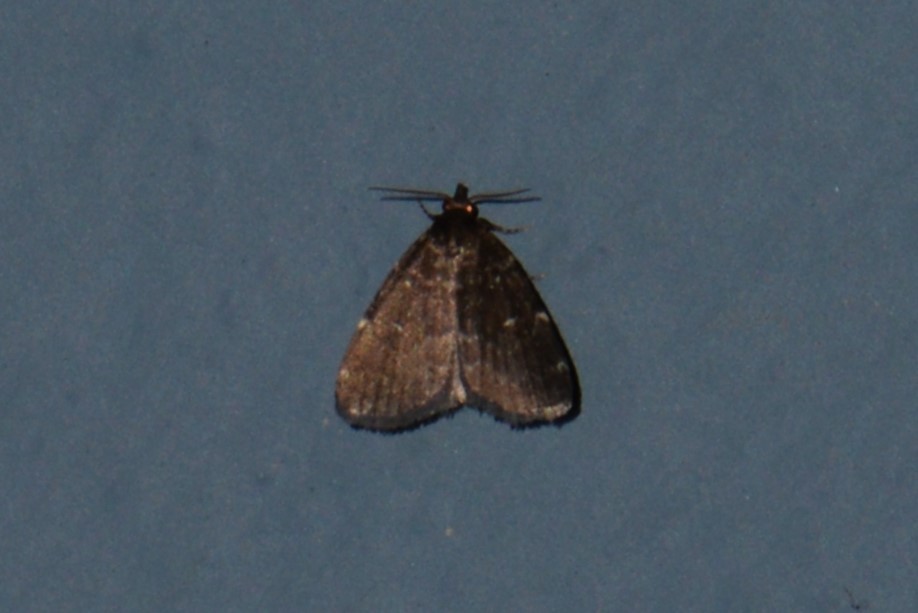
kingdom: Animalia
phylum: Arthropoda
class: Insecta
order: Lepidoptera
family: Erebidae
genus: Idia
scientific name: Idia julia
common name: Julia's idia moth
